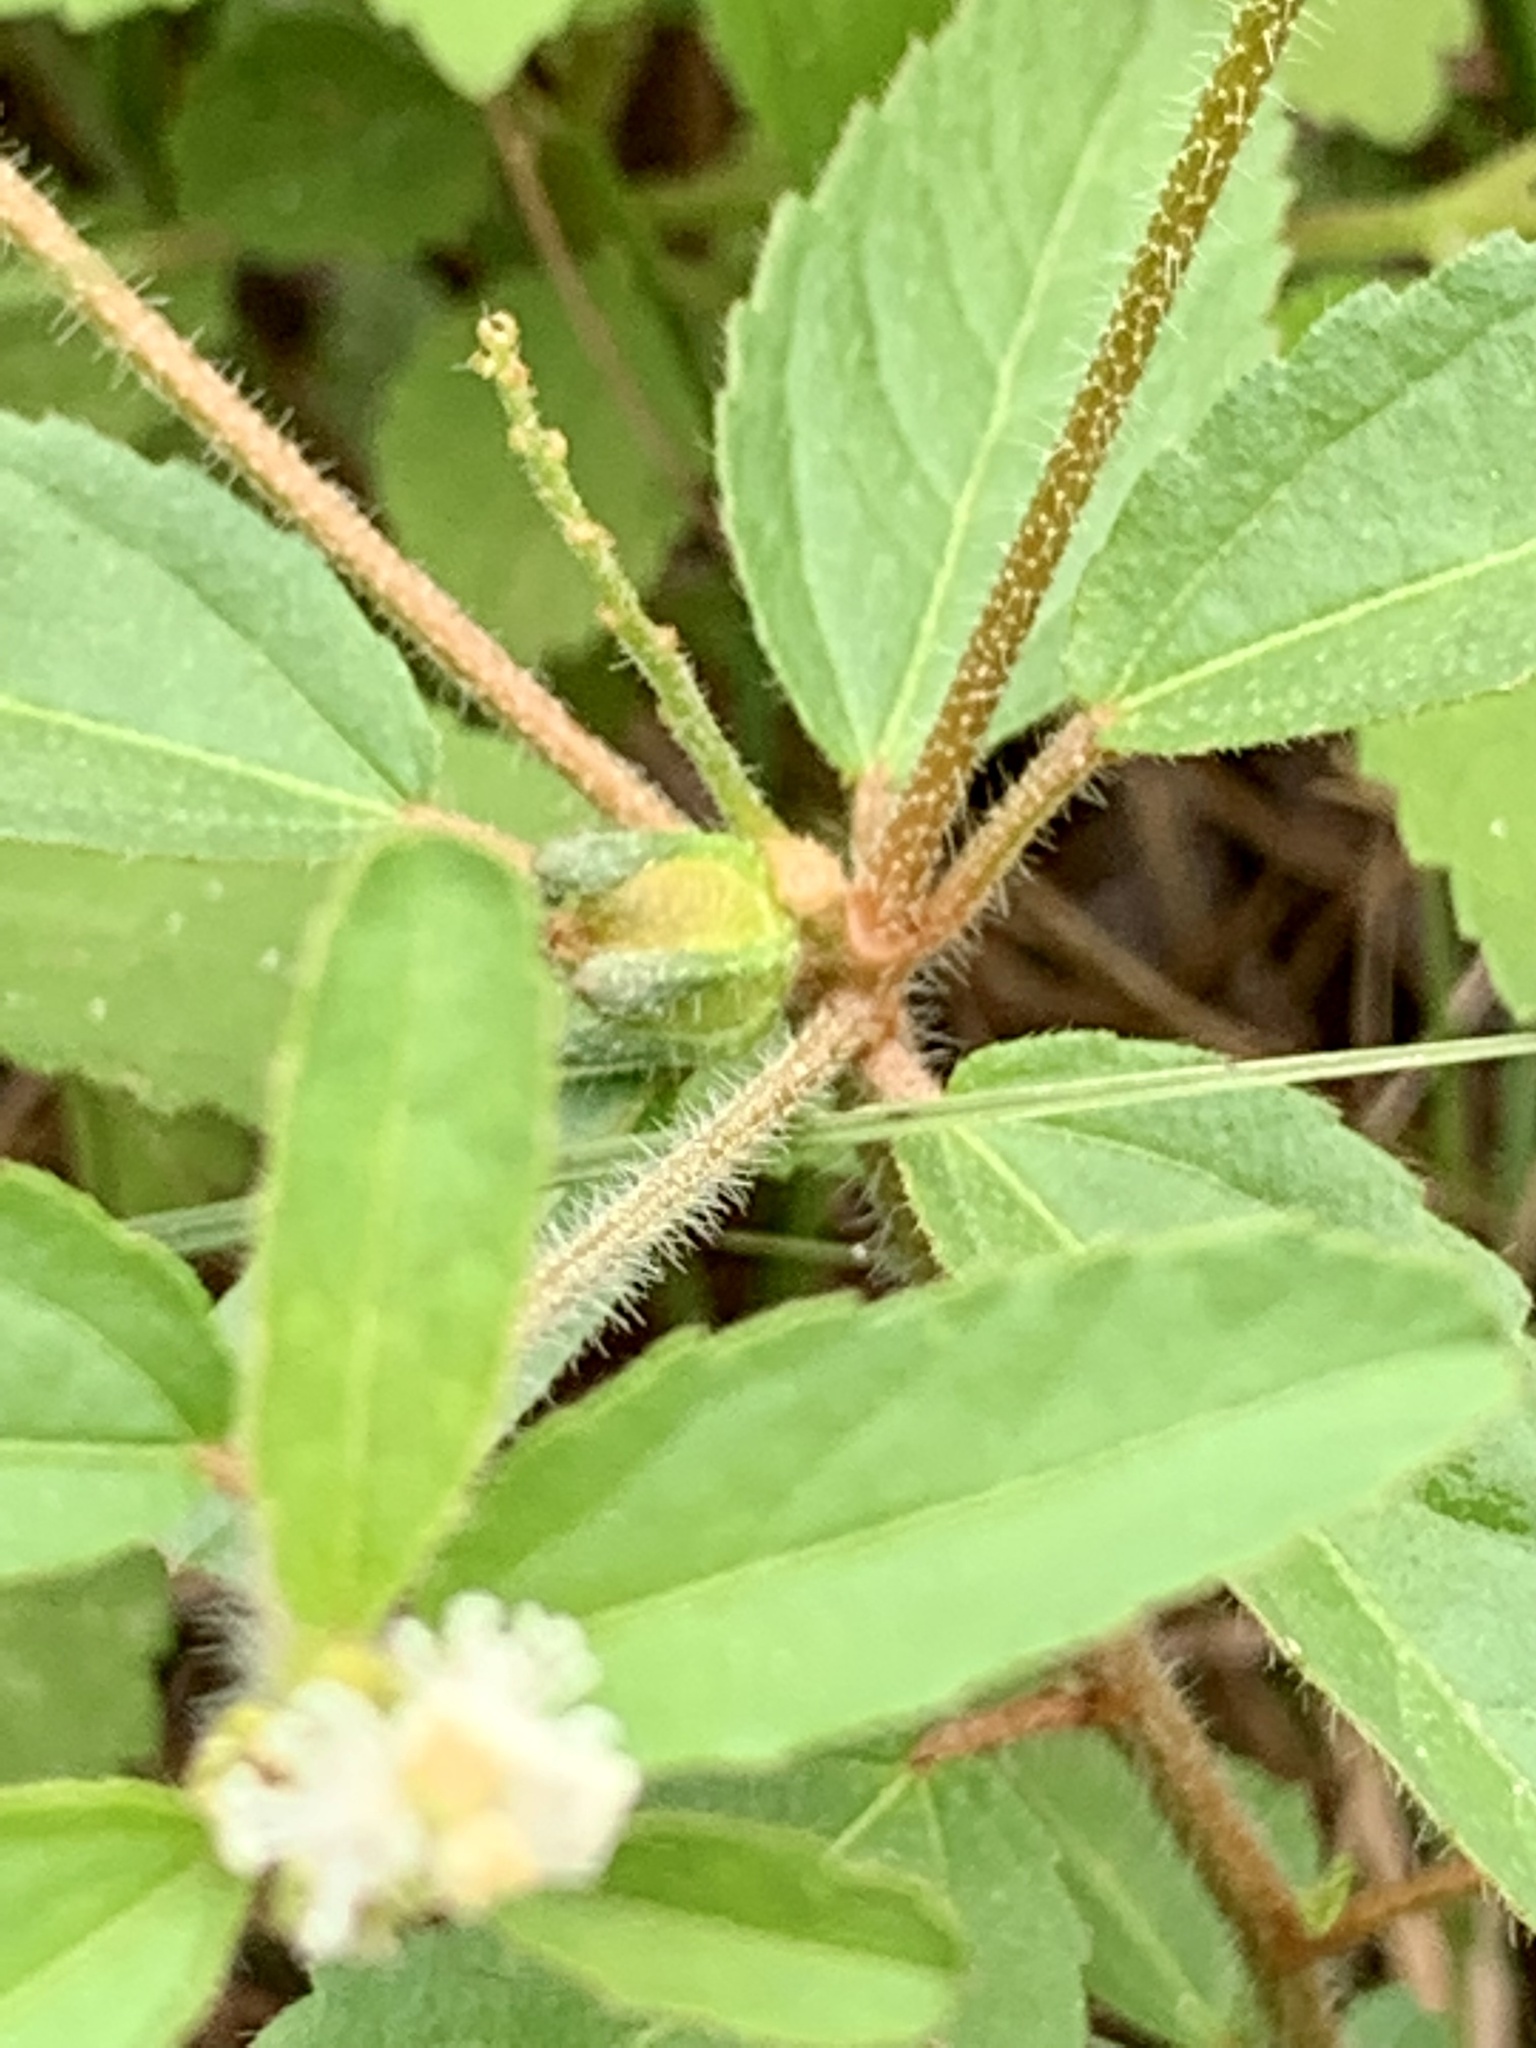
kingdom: Plantae
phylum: Tracheophyta
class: Magnoliopsida
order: Malpighiales
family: Euphorbiaceae
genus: Croton
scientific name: Croton glandulosus
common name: Tropic croton
